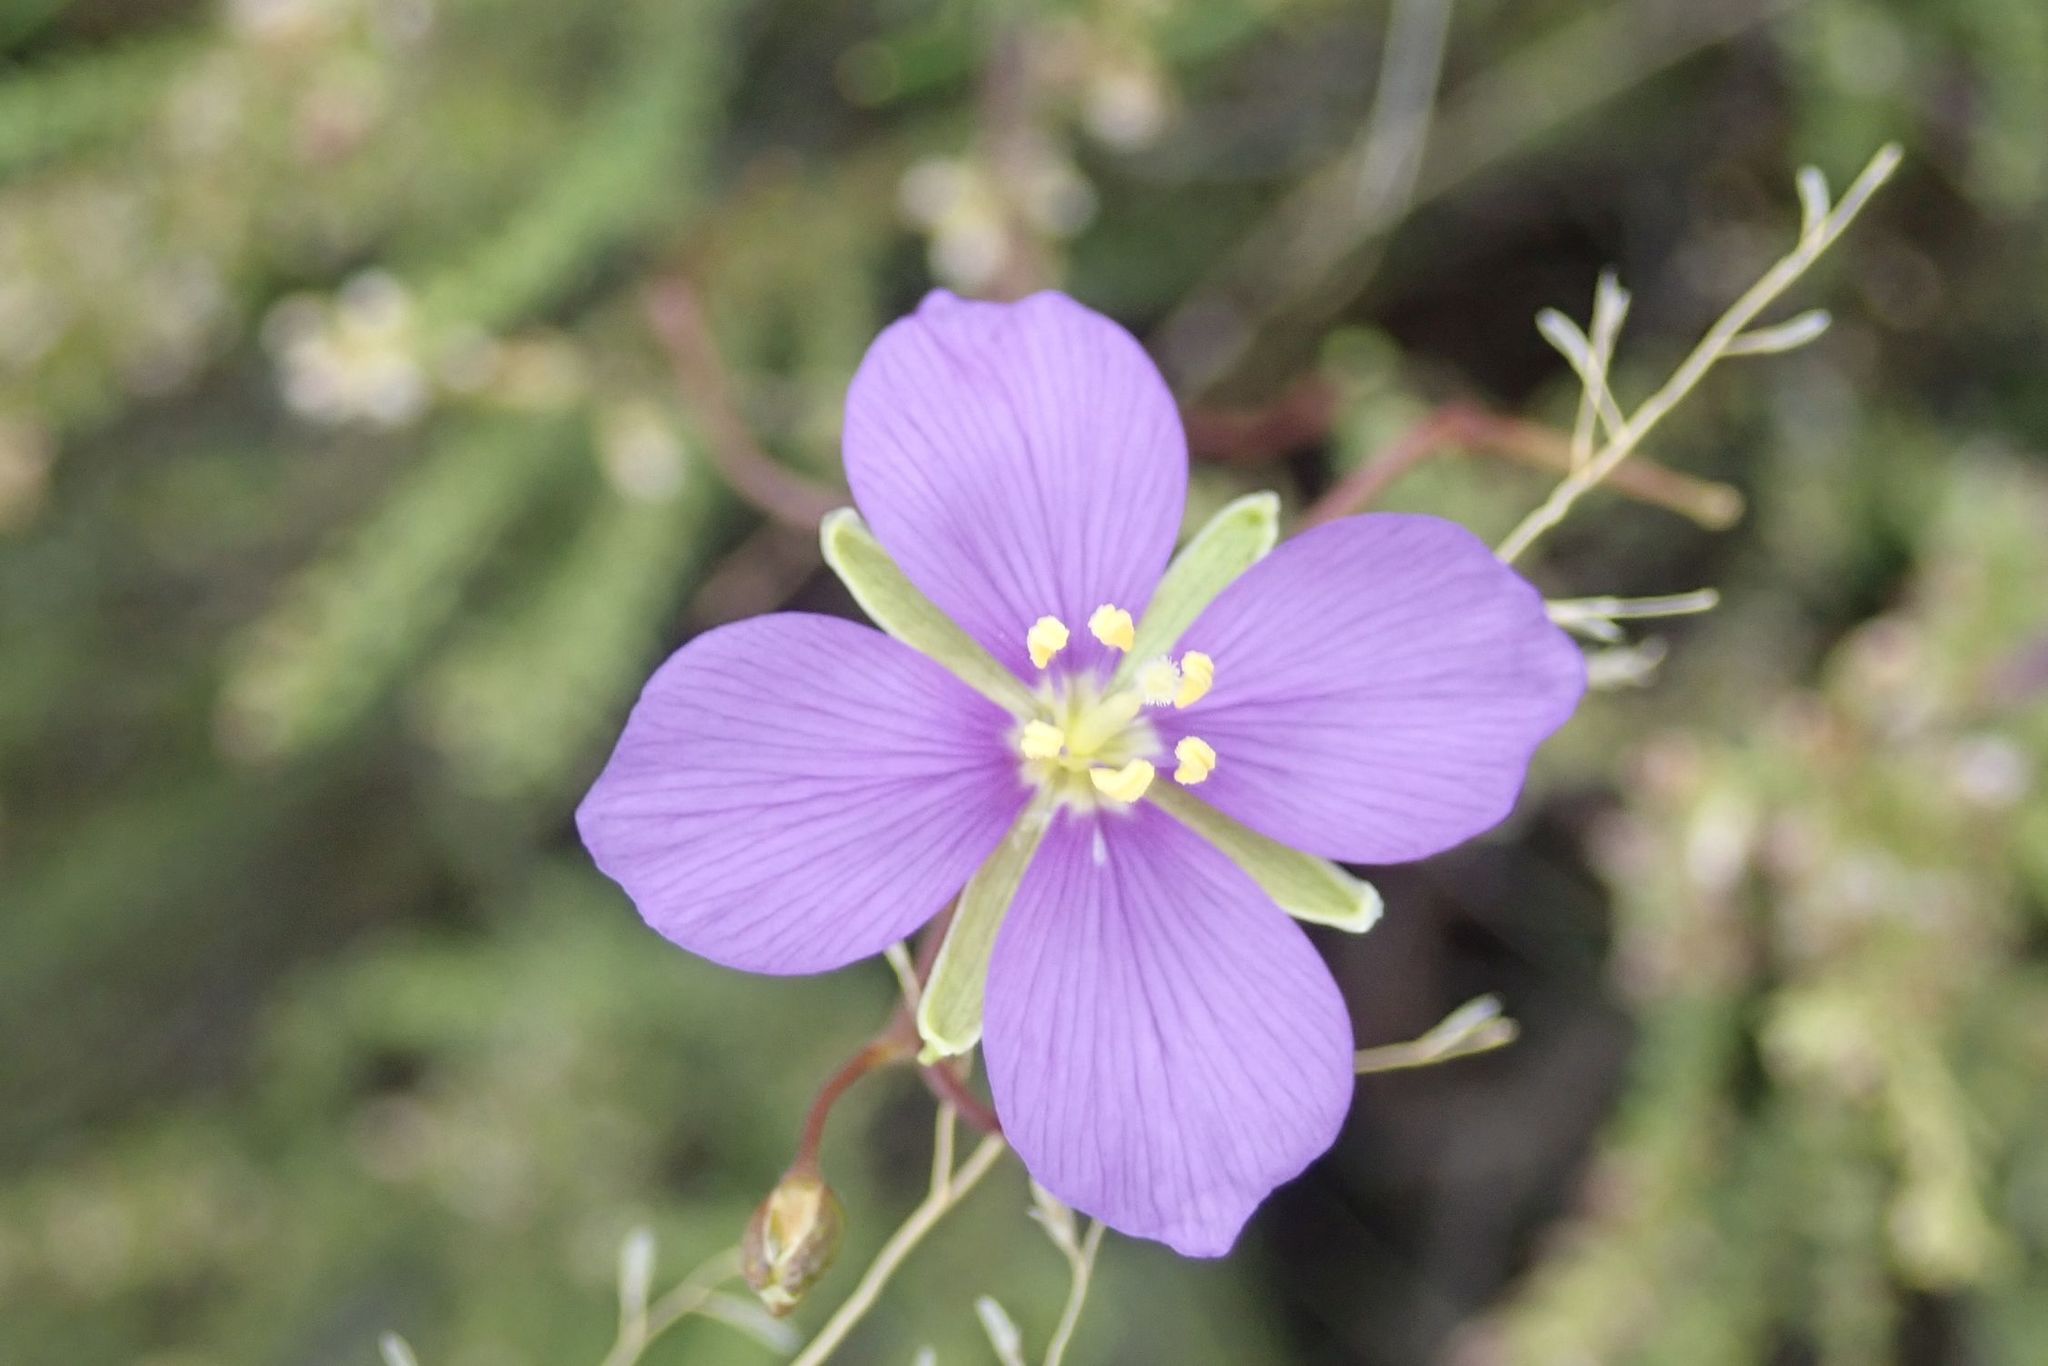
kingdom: Plantae
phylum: Tracheophyta
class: Magnoliopsida
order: Brassicales
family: Brassicaceae
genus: Heliophila
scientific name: Heliophila suavissima
